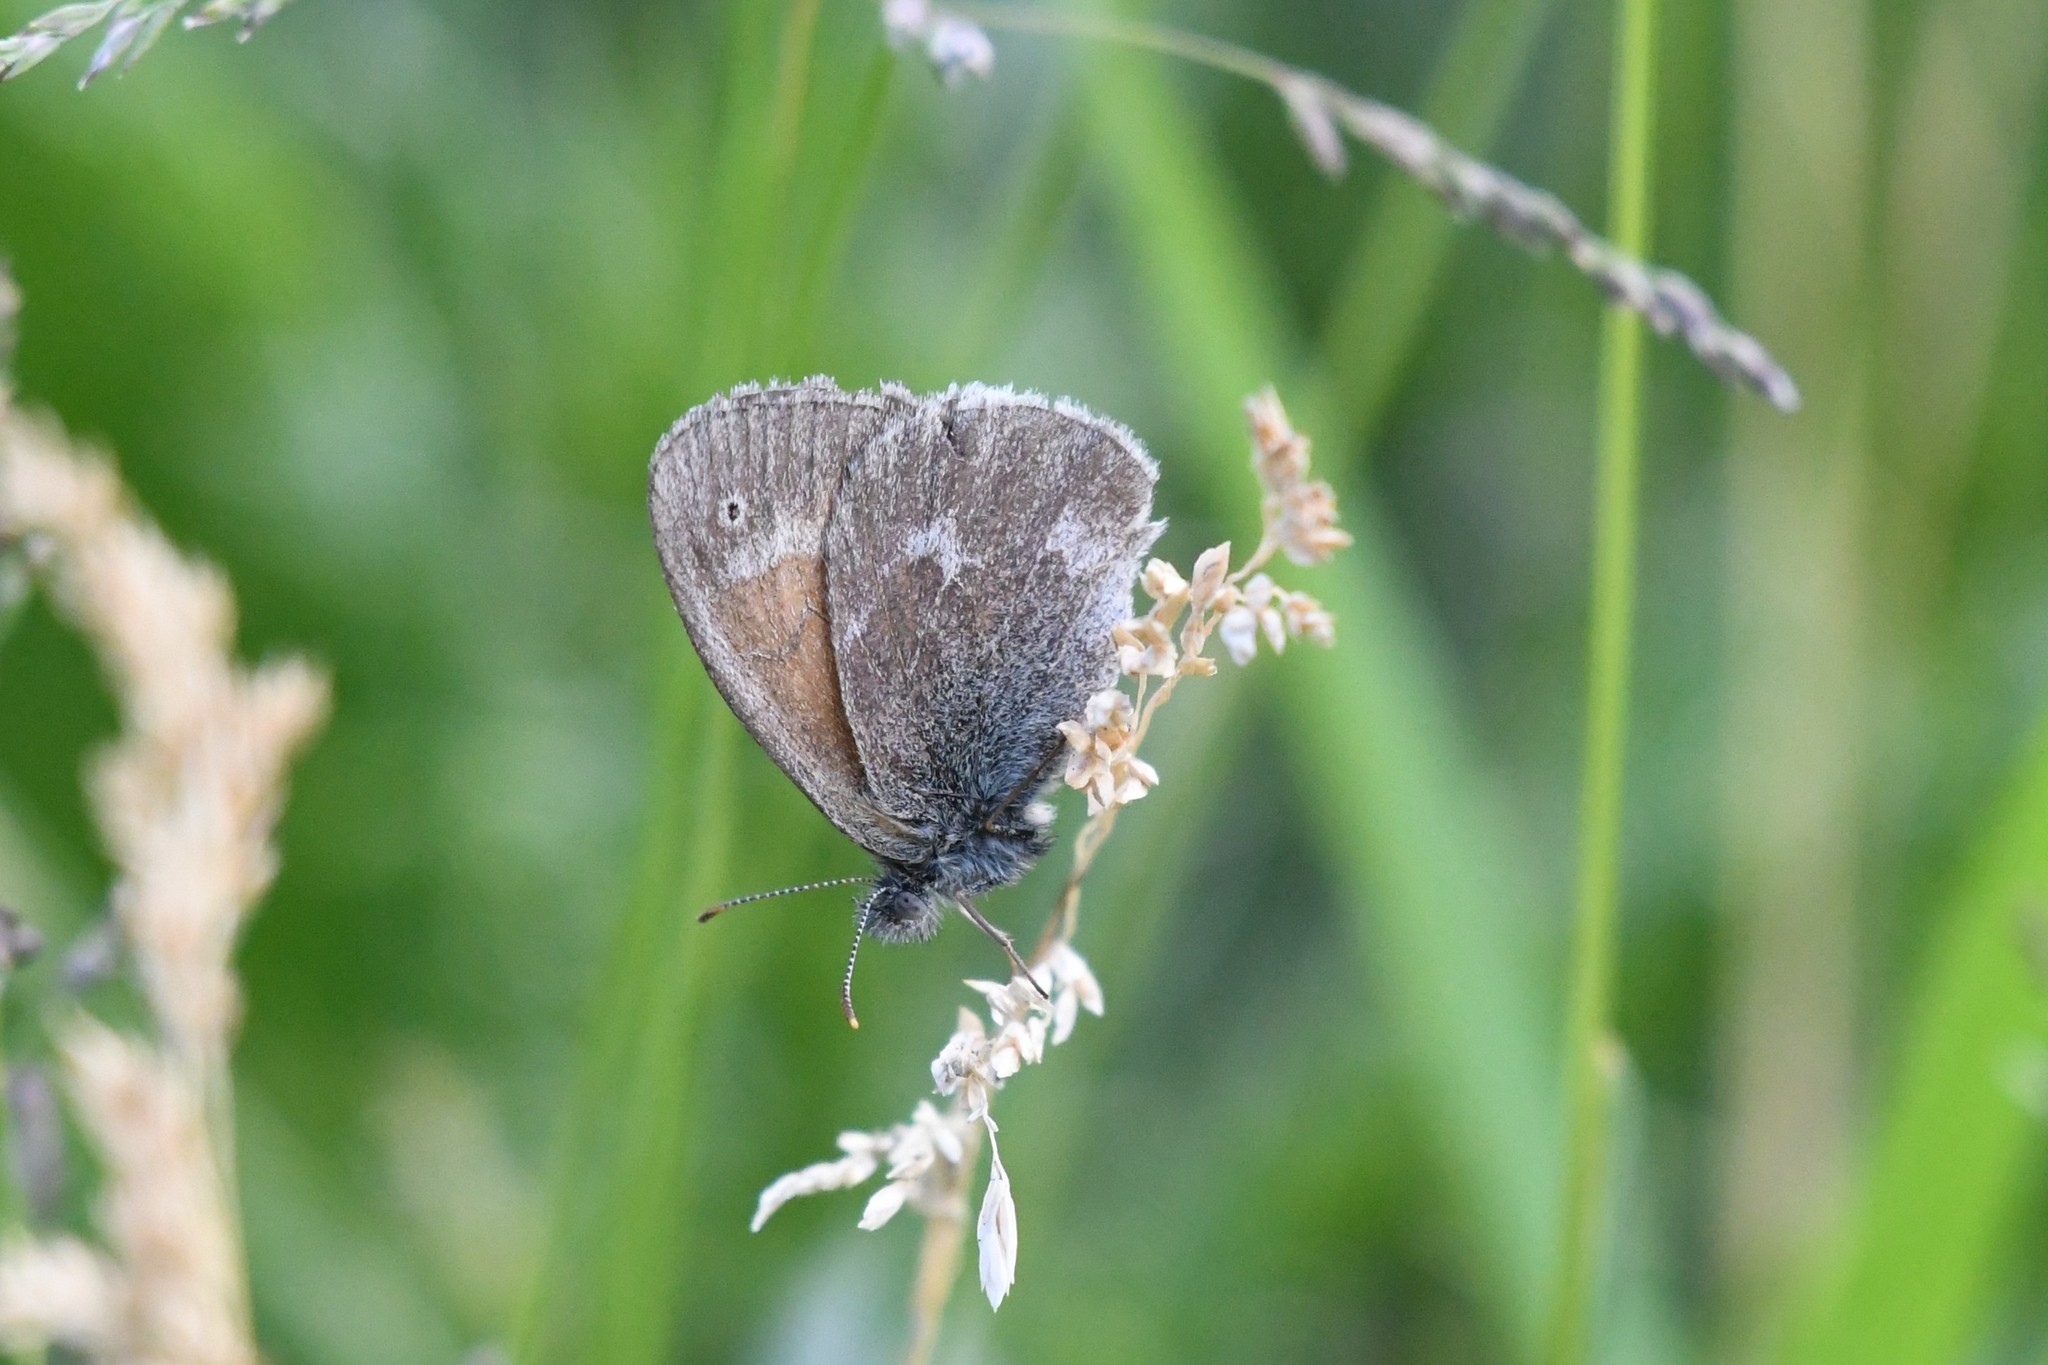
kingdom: Animalia
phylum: Arthropoda
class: Insecta
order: Lepidoptera
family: Nymphalidae
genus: Coenonympha
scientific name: Coenonympha california
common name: Common ringlet
